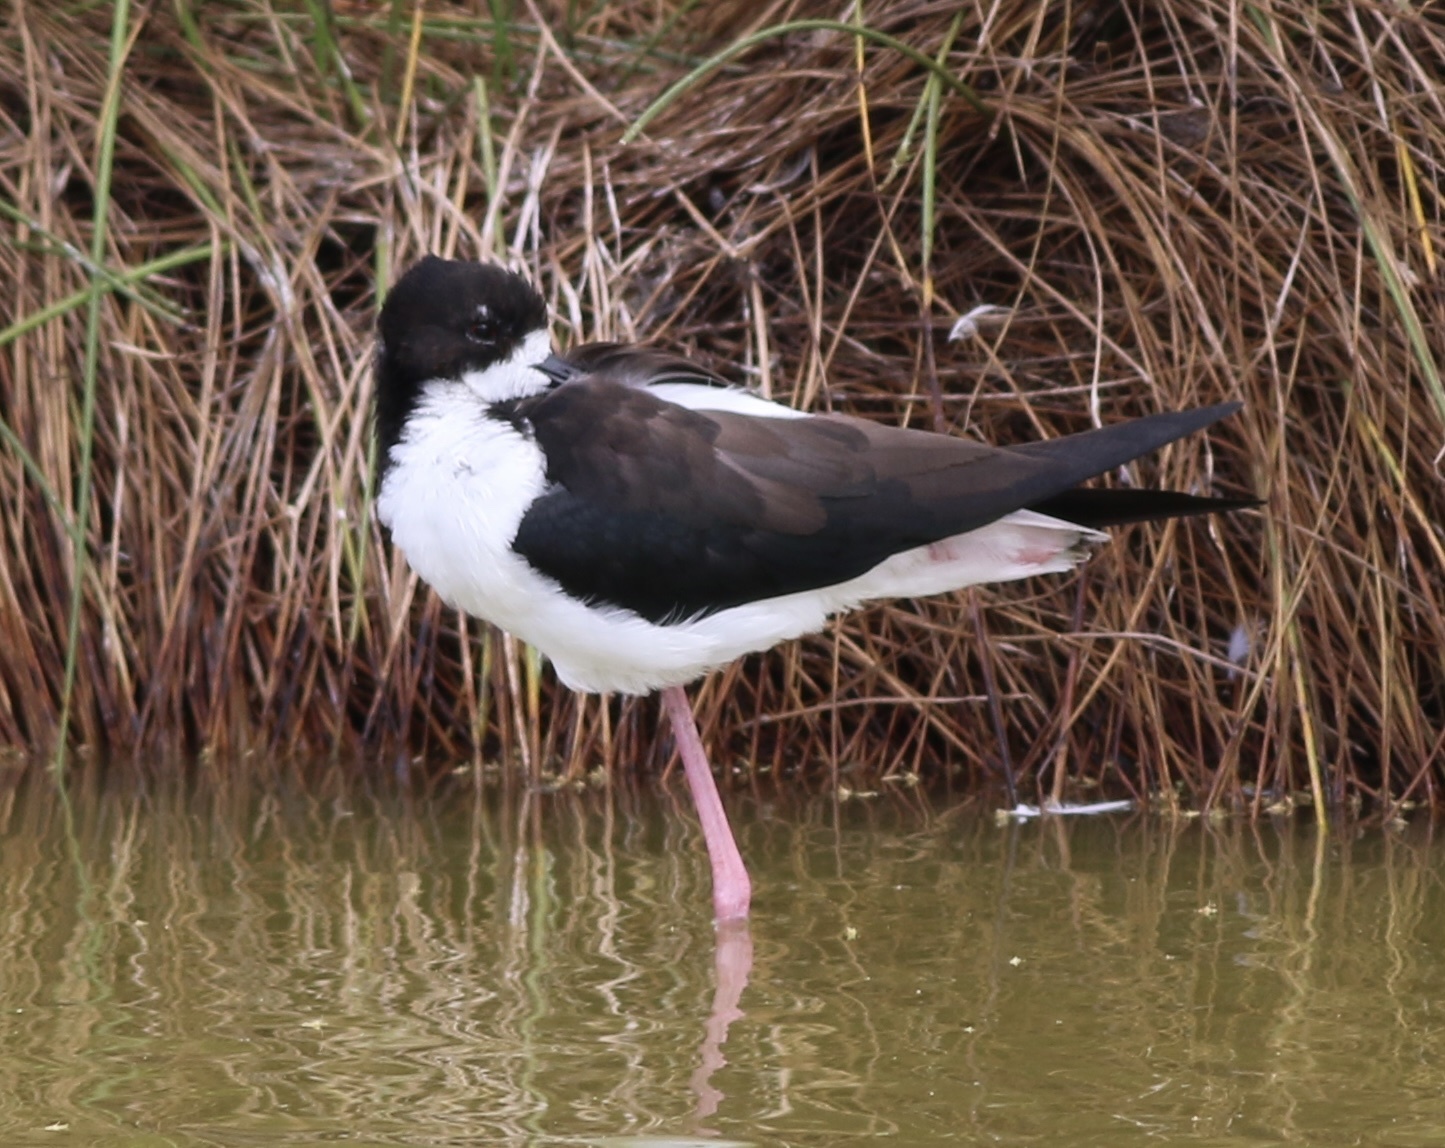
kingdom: Animalia
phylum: Chordata
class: Aves
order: Charadriiformes
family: Recurvirostridae
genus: Himantopus
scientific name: Himantopus mexicanus
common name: Black-necked stilt
